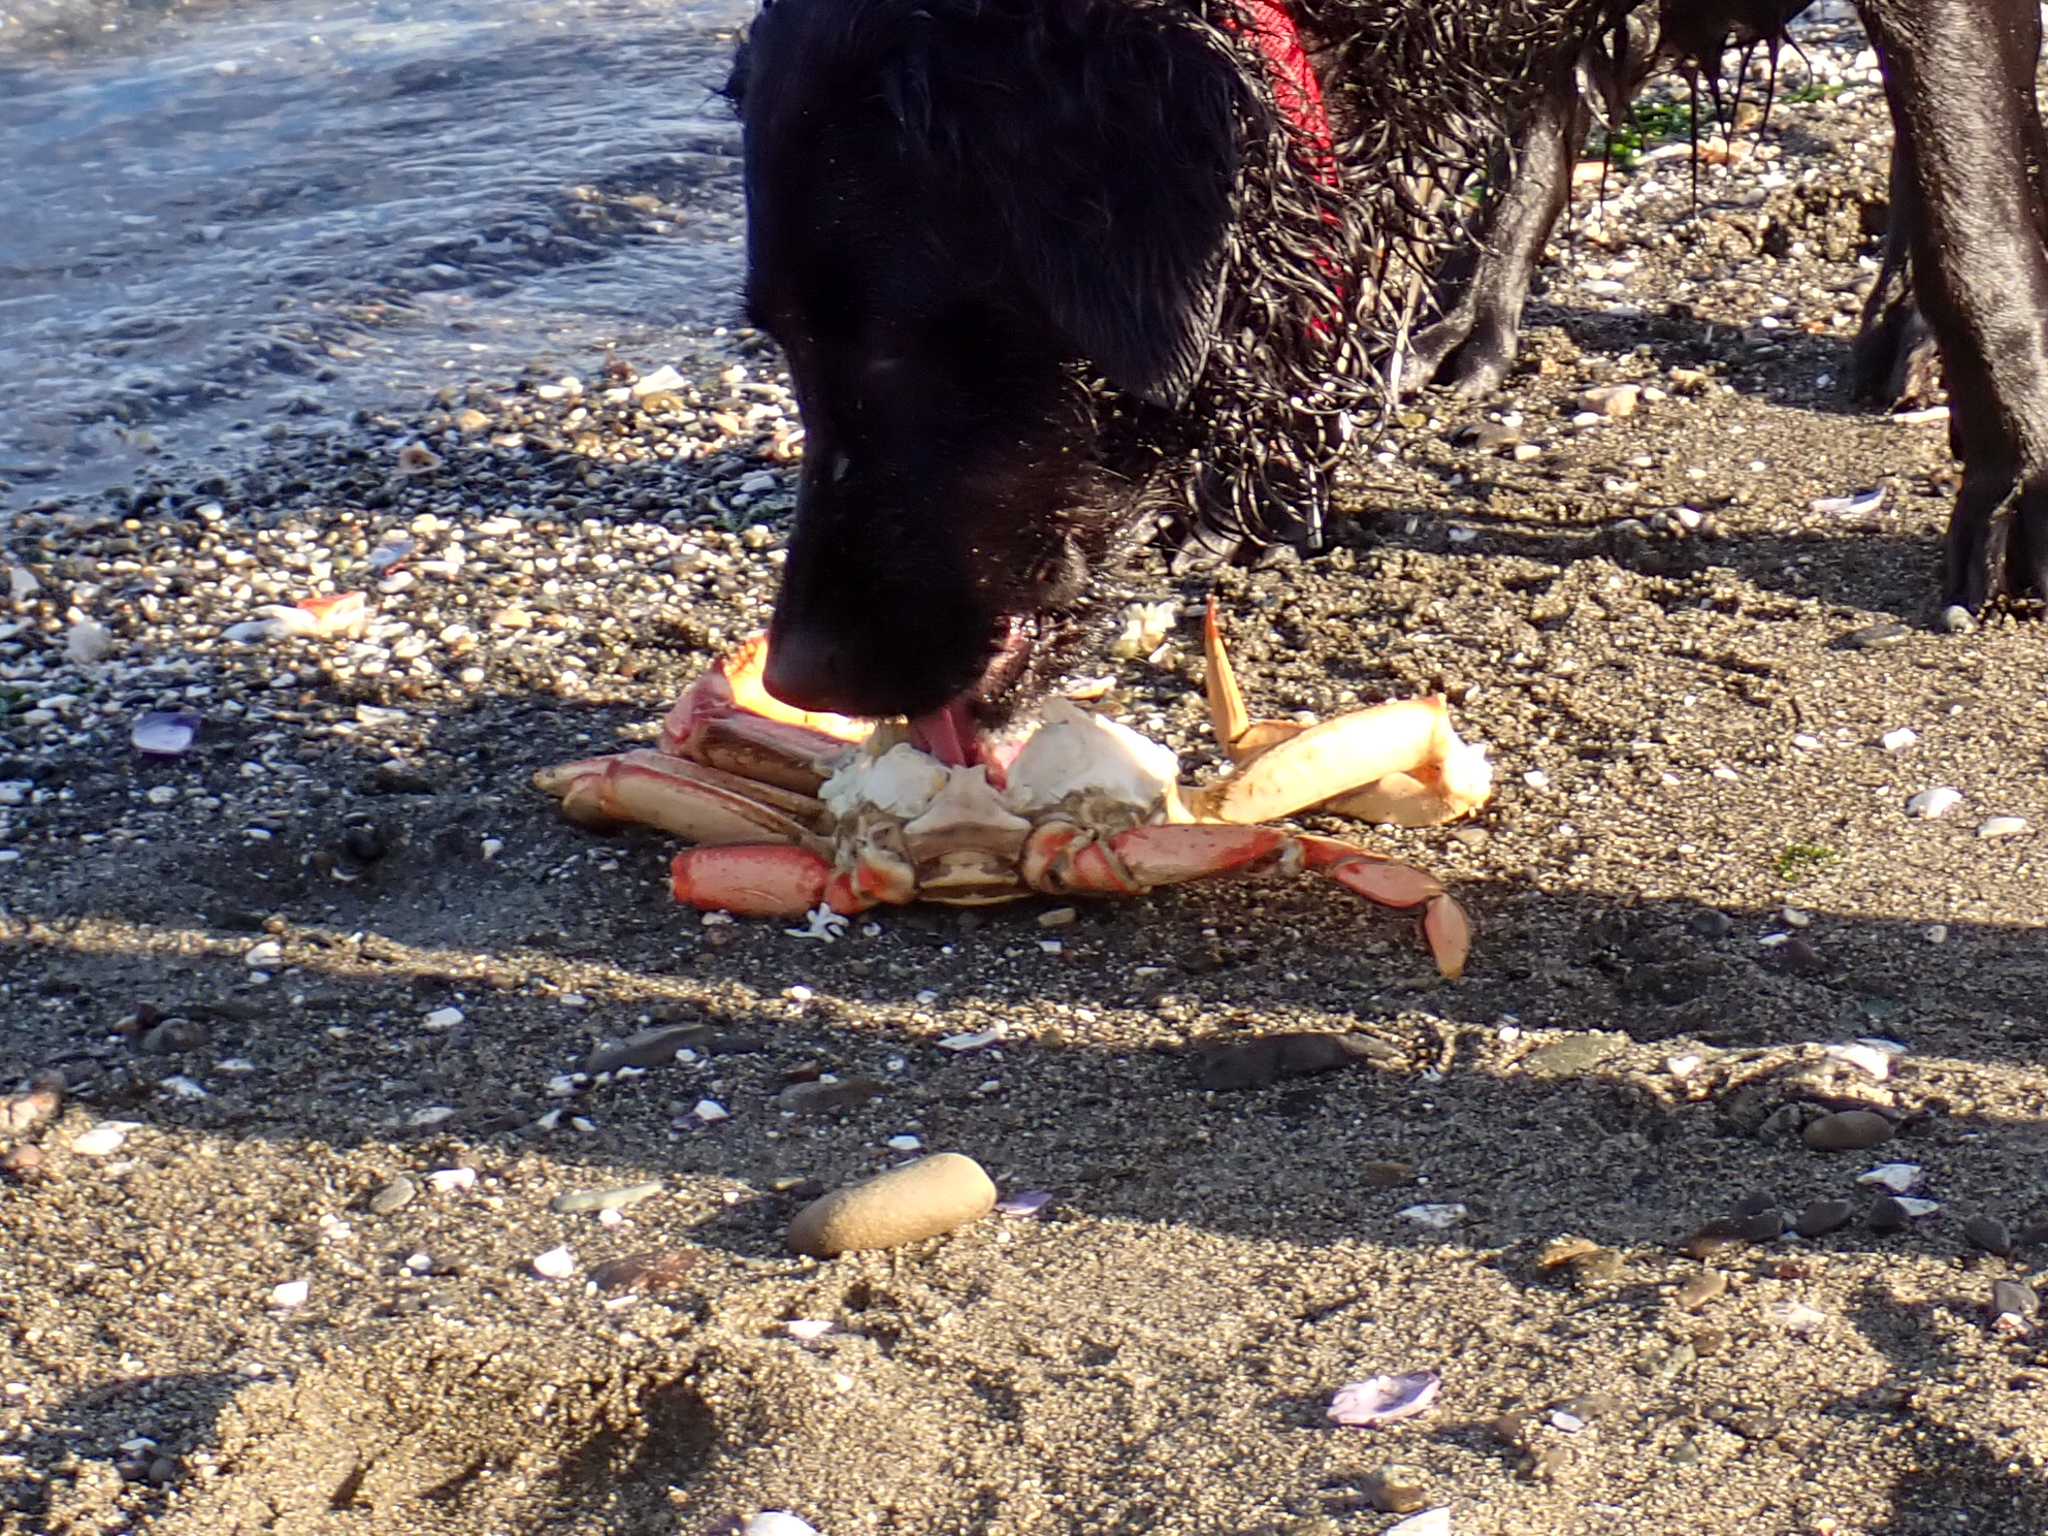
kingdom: Animalia
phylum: Arthropoda
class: Malacostraca
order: Decapoda
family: Cancridae
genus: Metacarcinus
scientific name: Metacarcinus magister
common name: Californian crab
